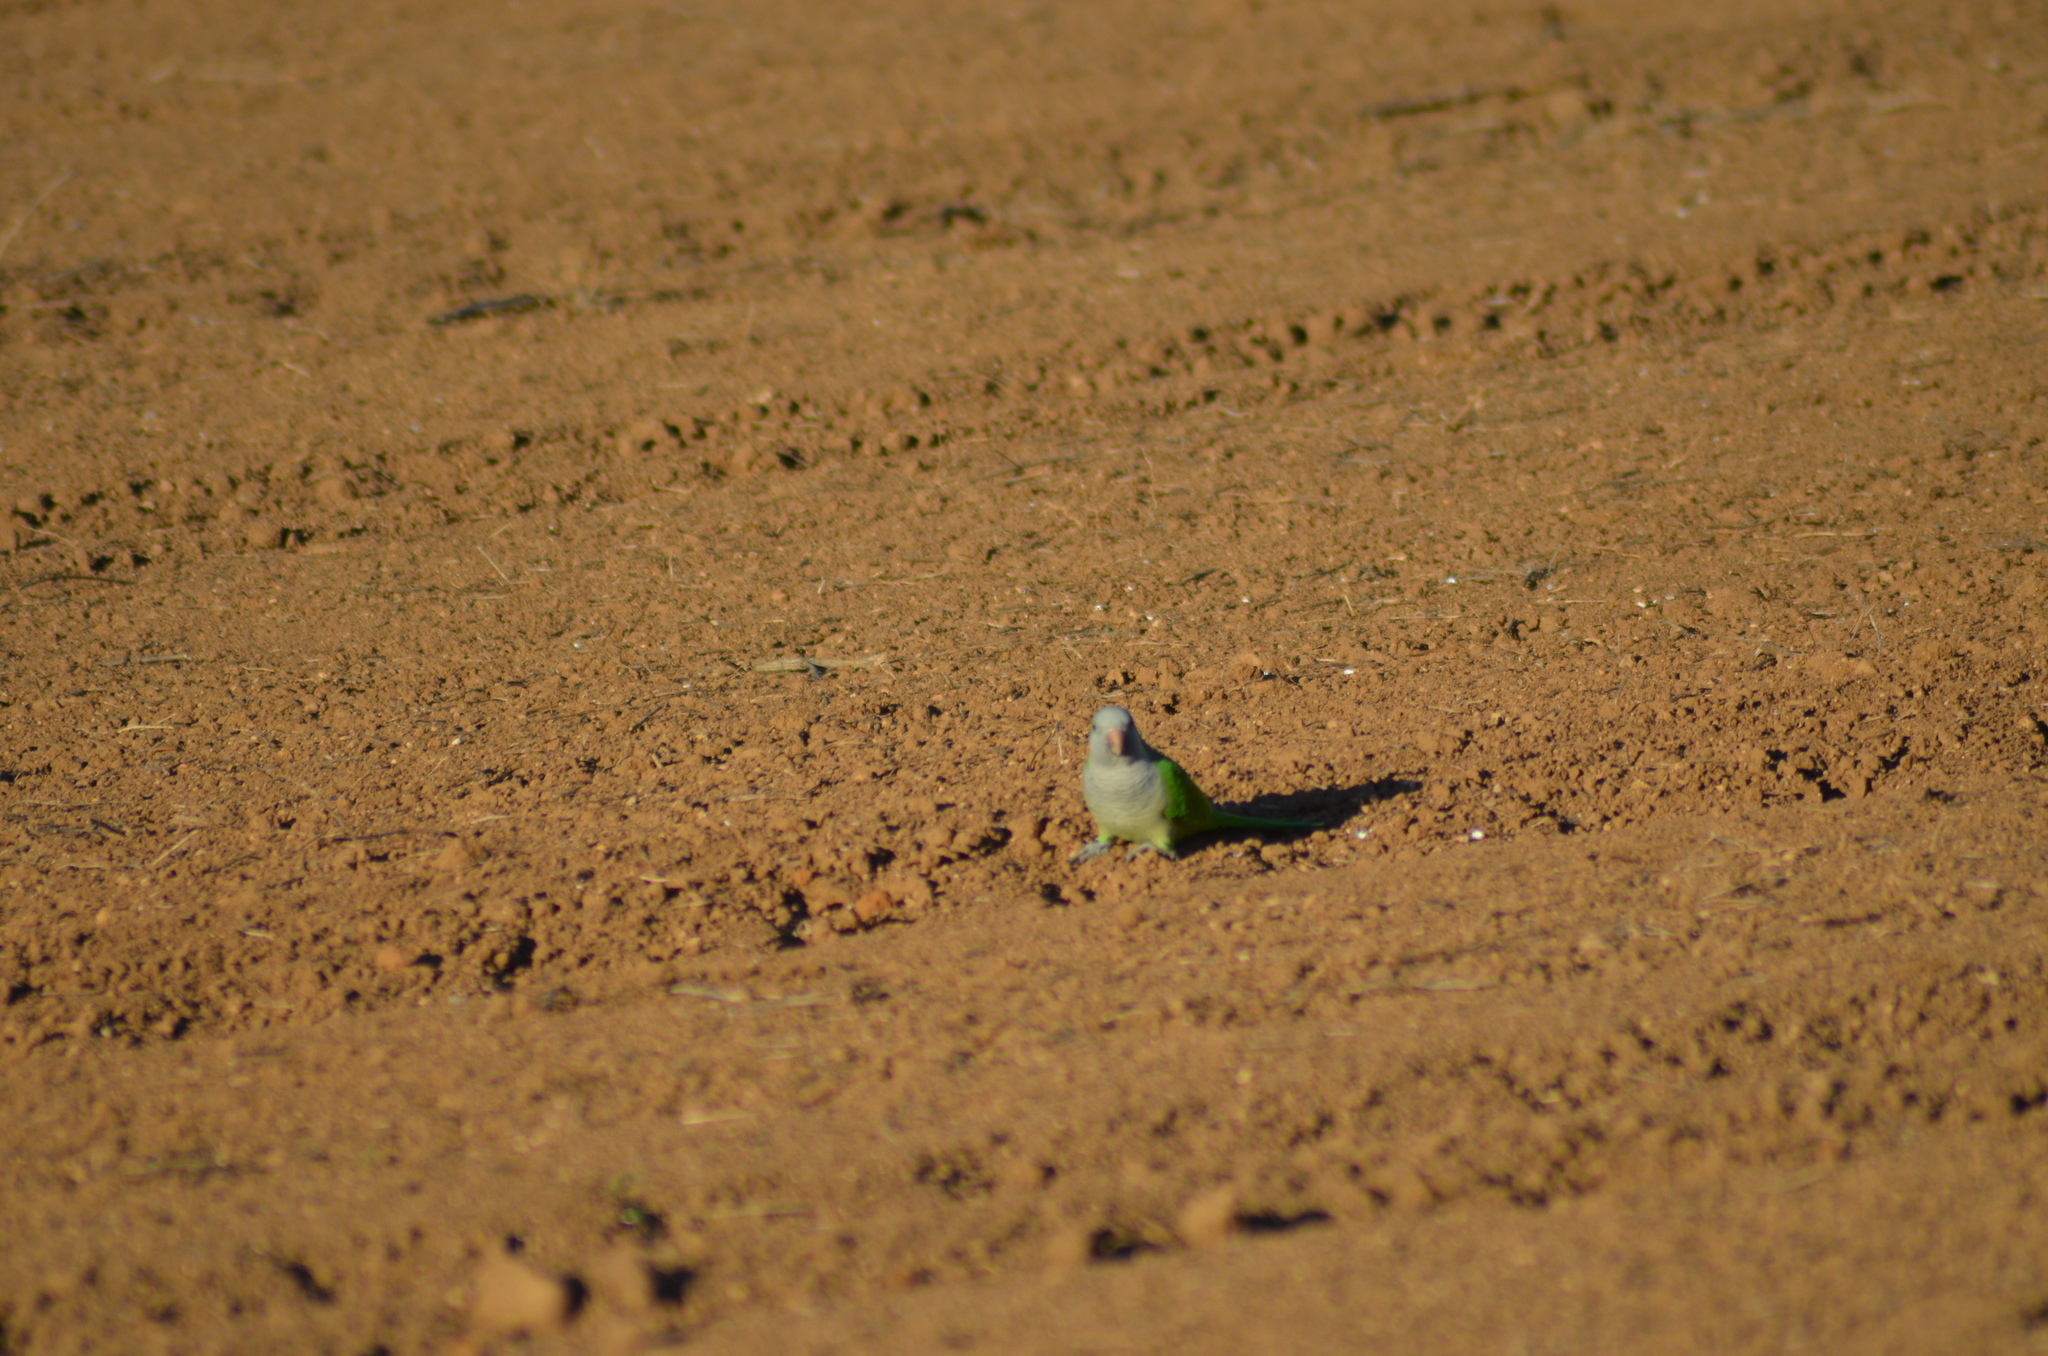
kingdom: Animalia
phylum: Chordata
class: Aves
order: Psittaciformes
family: Psittacidae
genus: Myiopsitta
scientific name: Myiopsitta monachus
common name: Monk parakeet
